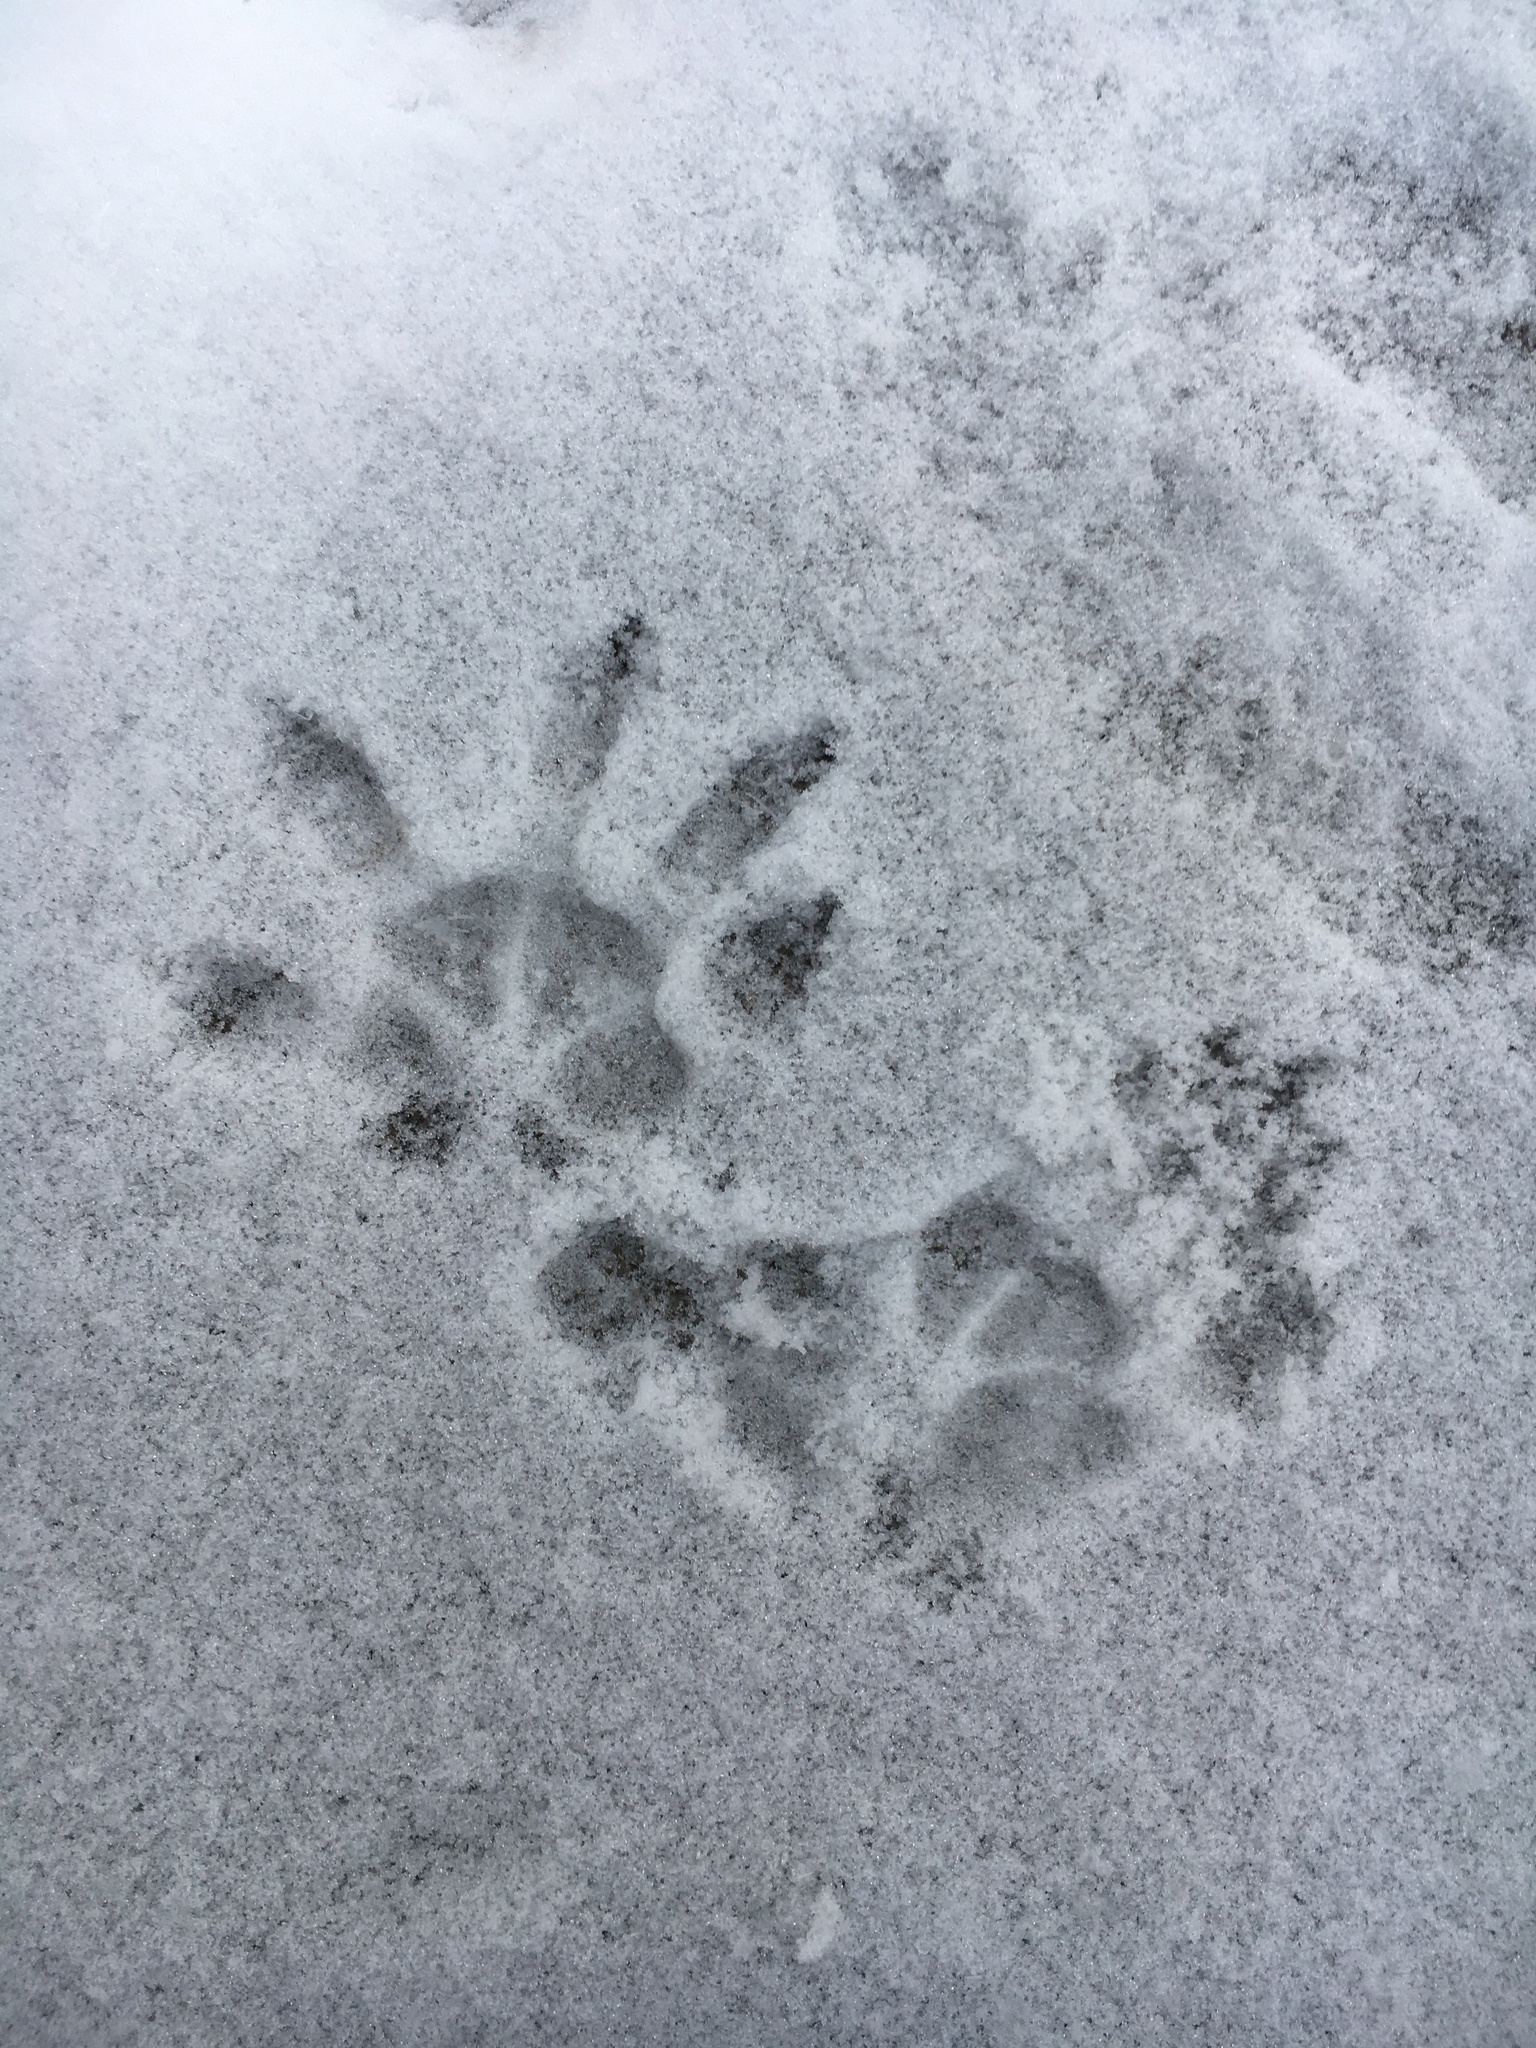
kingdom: Animalia
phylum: Chordata
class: Mammalia
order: Didelphimorphia
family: Didelphidae
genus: Didelphis
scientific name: Didelphis virginiana
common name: Virginia opossum
